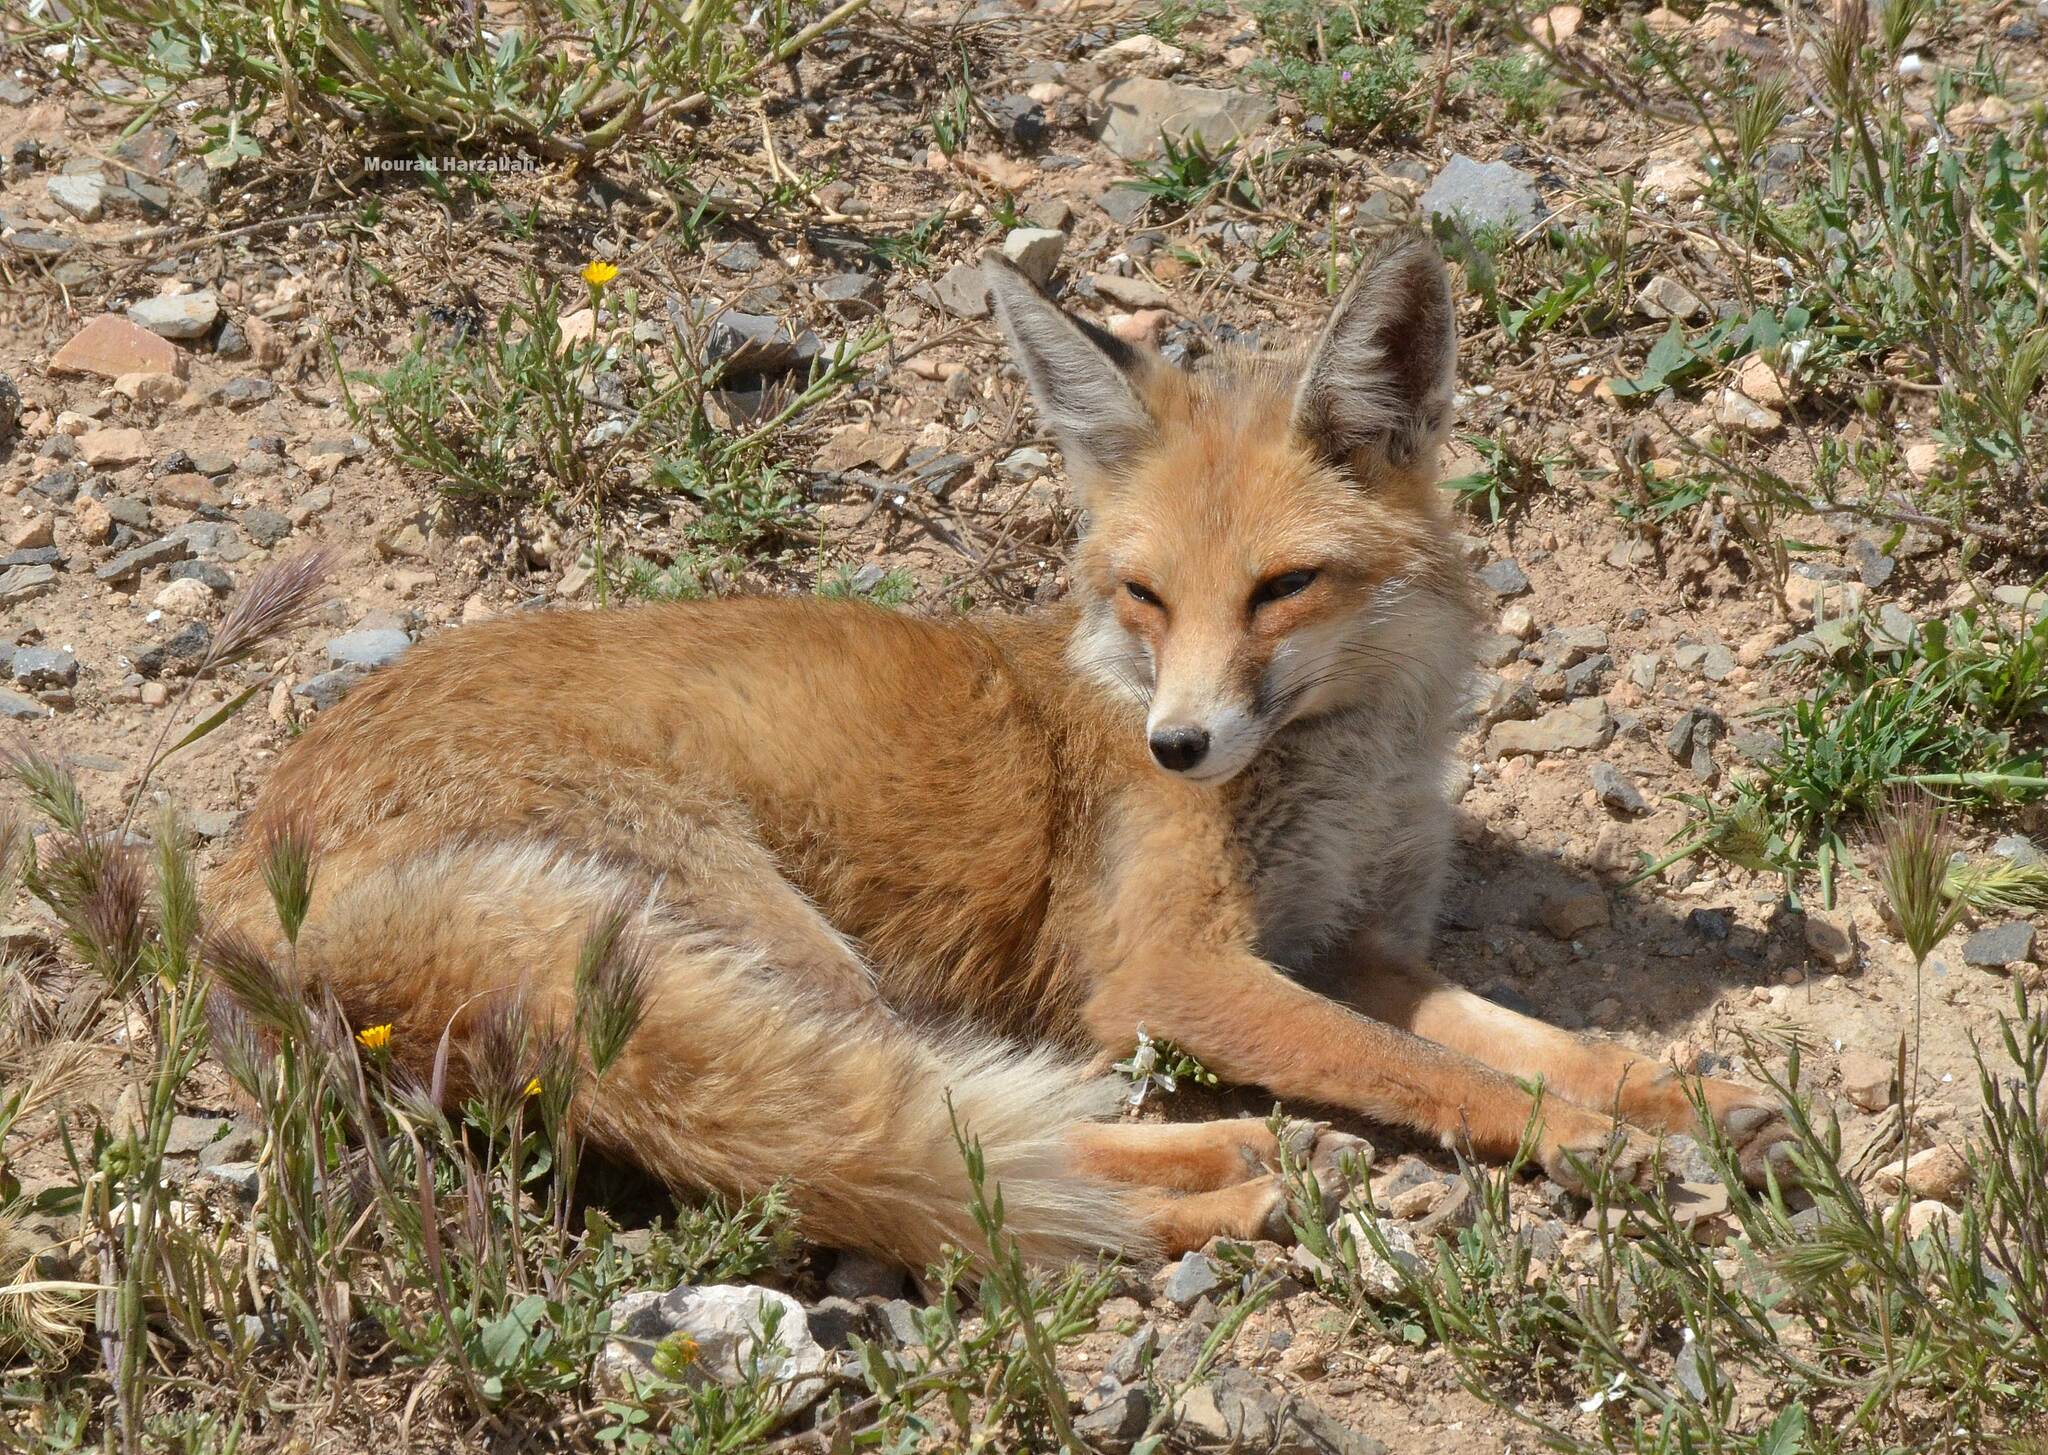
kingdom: Animalia
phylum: Chordata
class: Mammalia
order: Carnivora
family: Canidae
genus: Vulpes
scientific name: Vulpes vulpes
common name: Red fox
